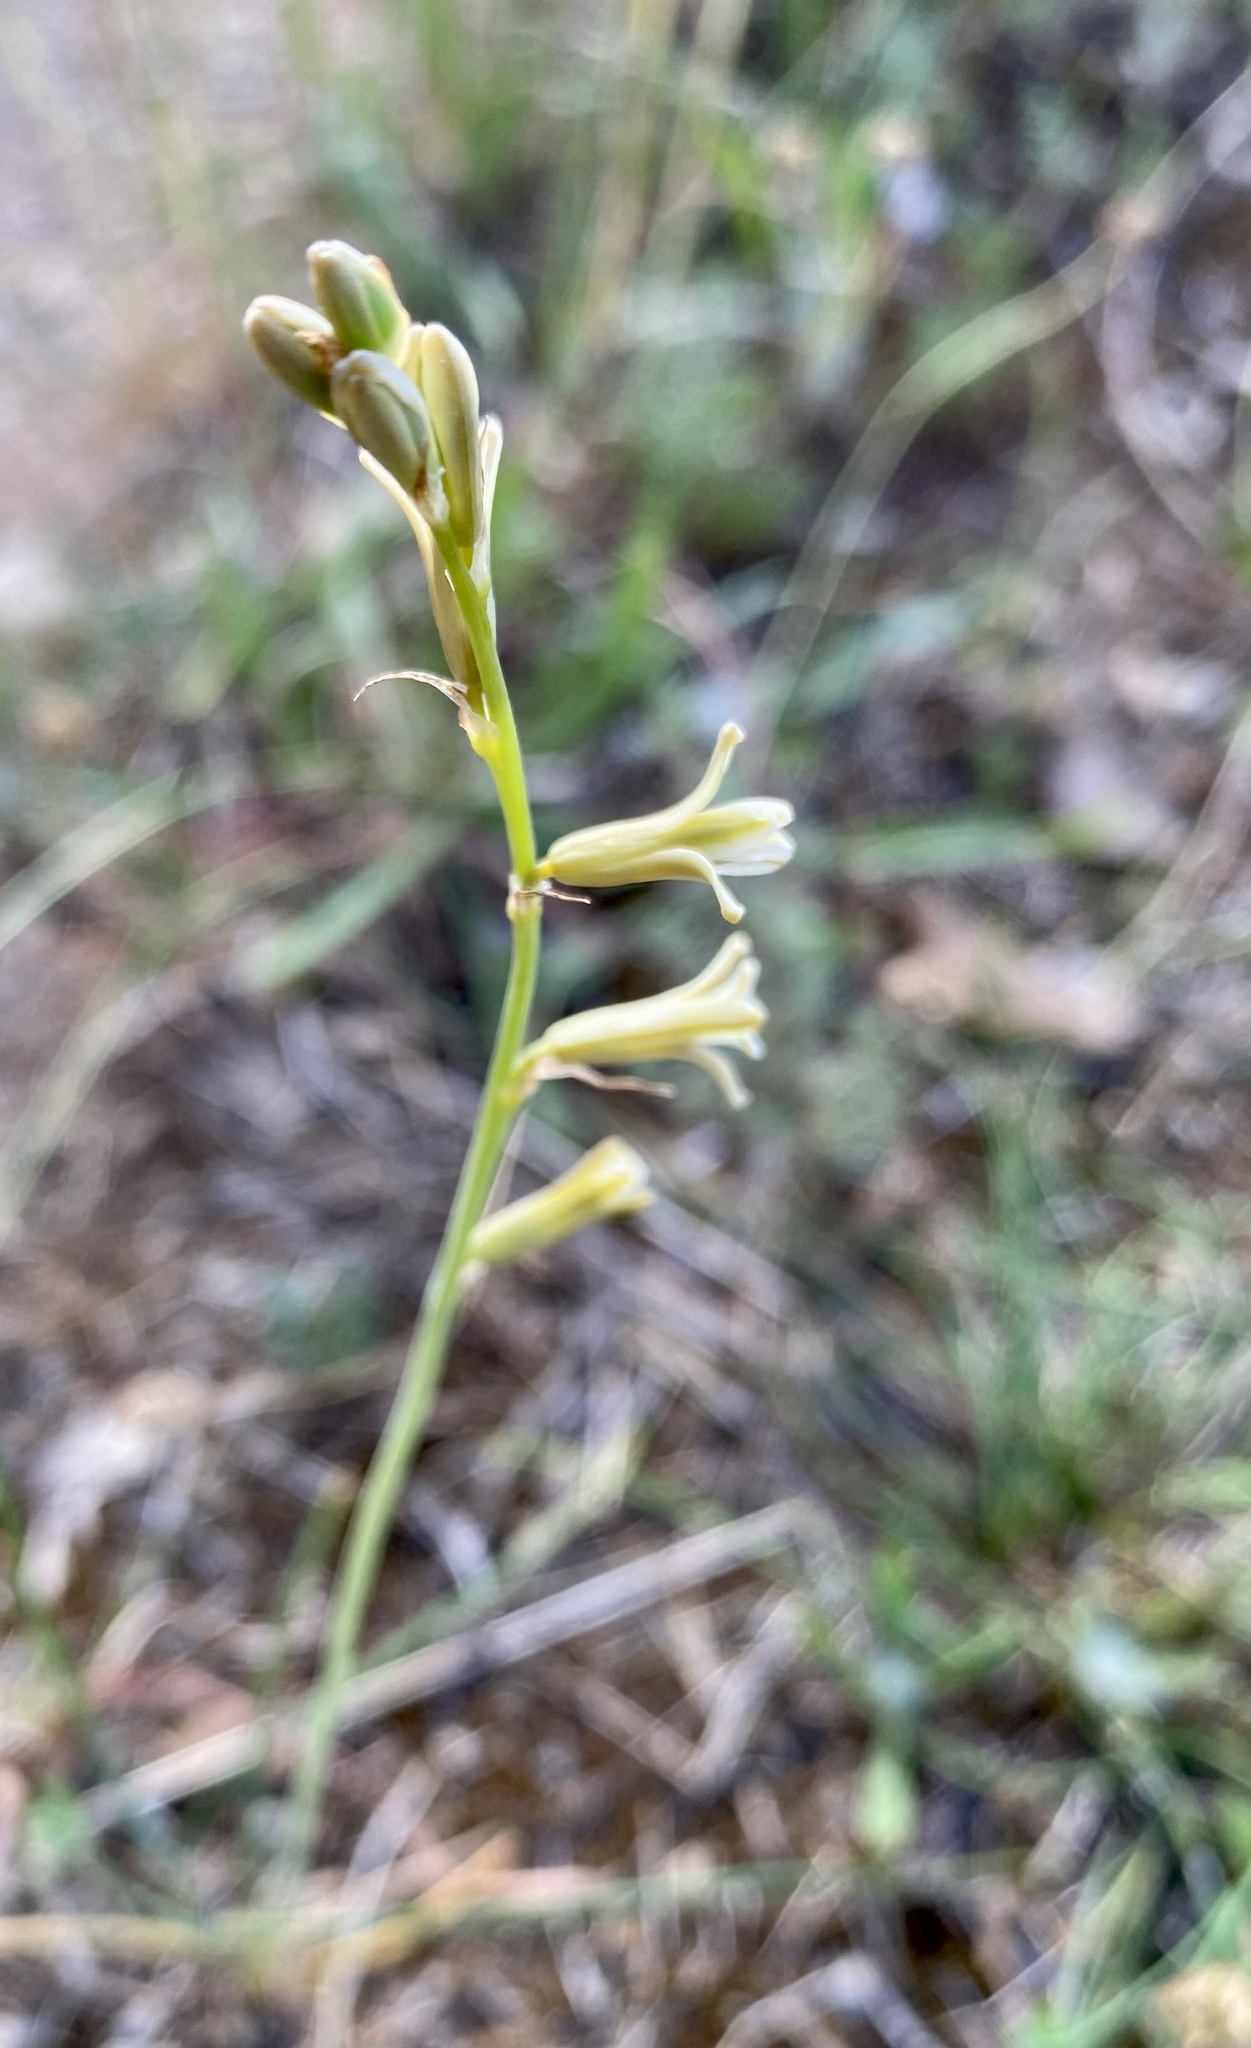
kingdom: Plantae
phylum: Tracheophyta
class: Liliopsida
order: Asparagales
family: Asparagaceae
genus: Dipcadi
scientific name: Dipcadi serotinum
